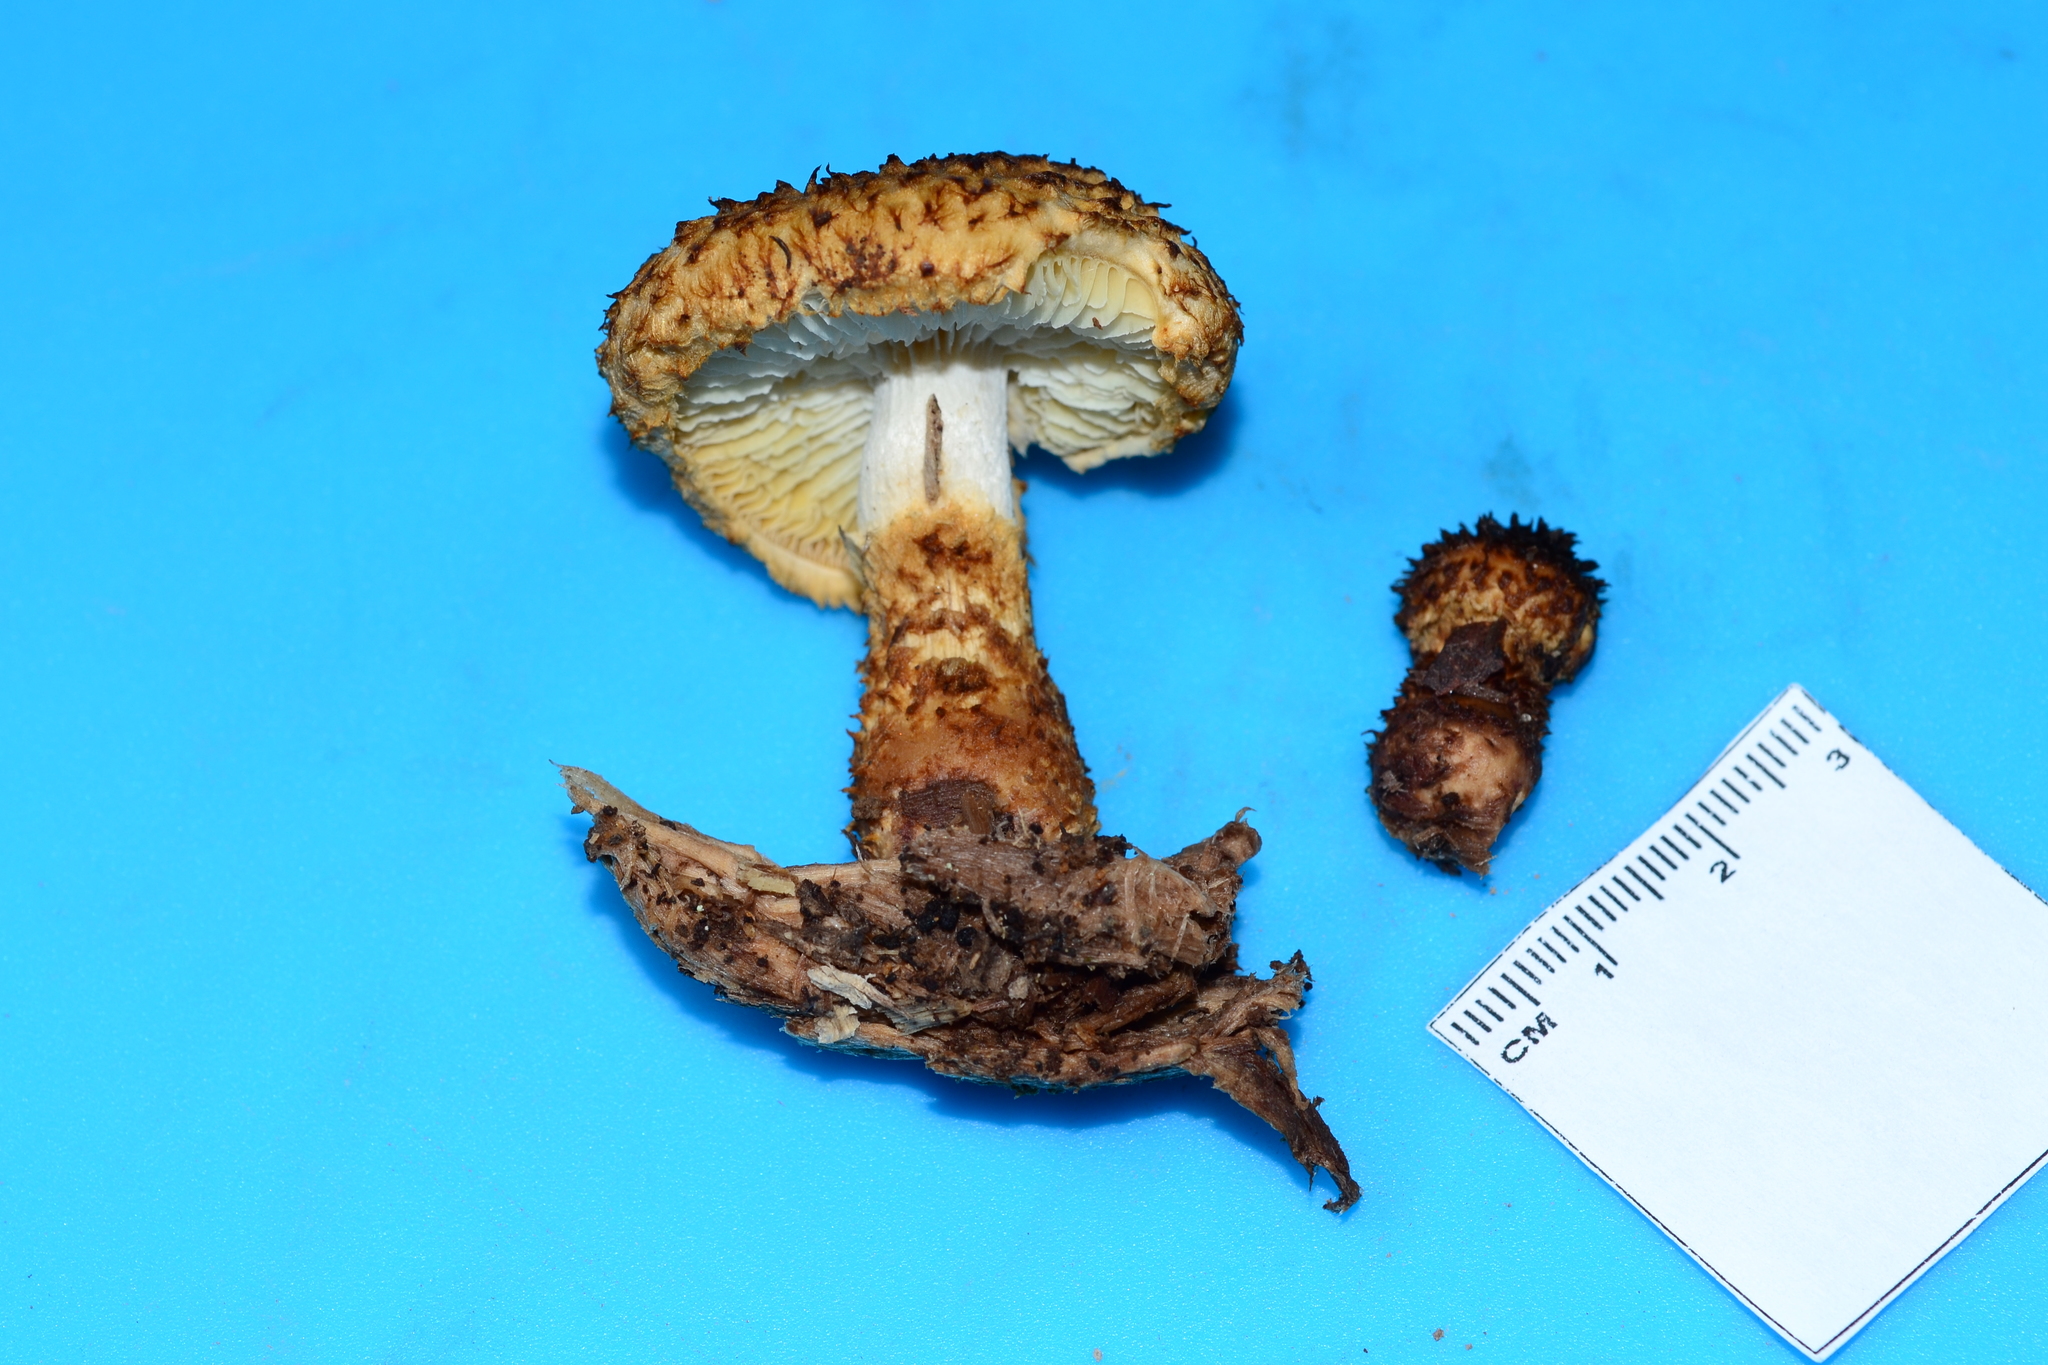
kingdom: Fungi
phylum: Basidiomycota
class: Agaricomycetes
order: Agaricales
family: Agaricaceae
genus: Leucopholiota
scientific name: Leucopholiota decorosa
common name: Decorated pholiota
